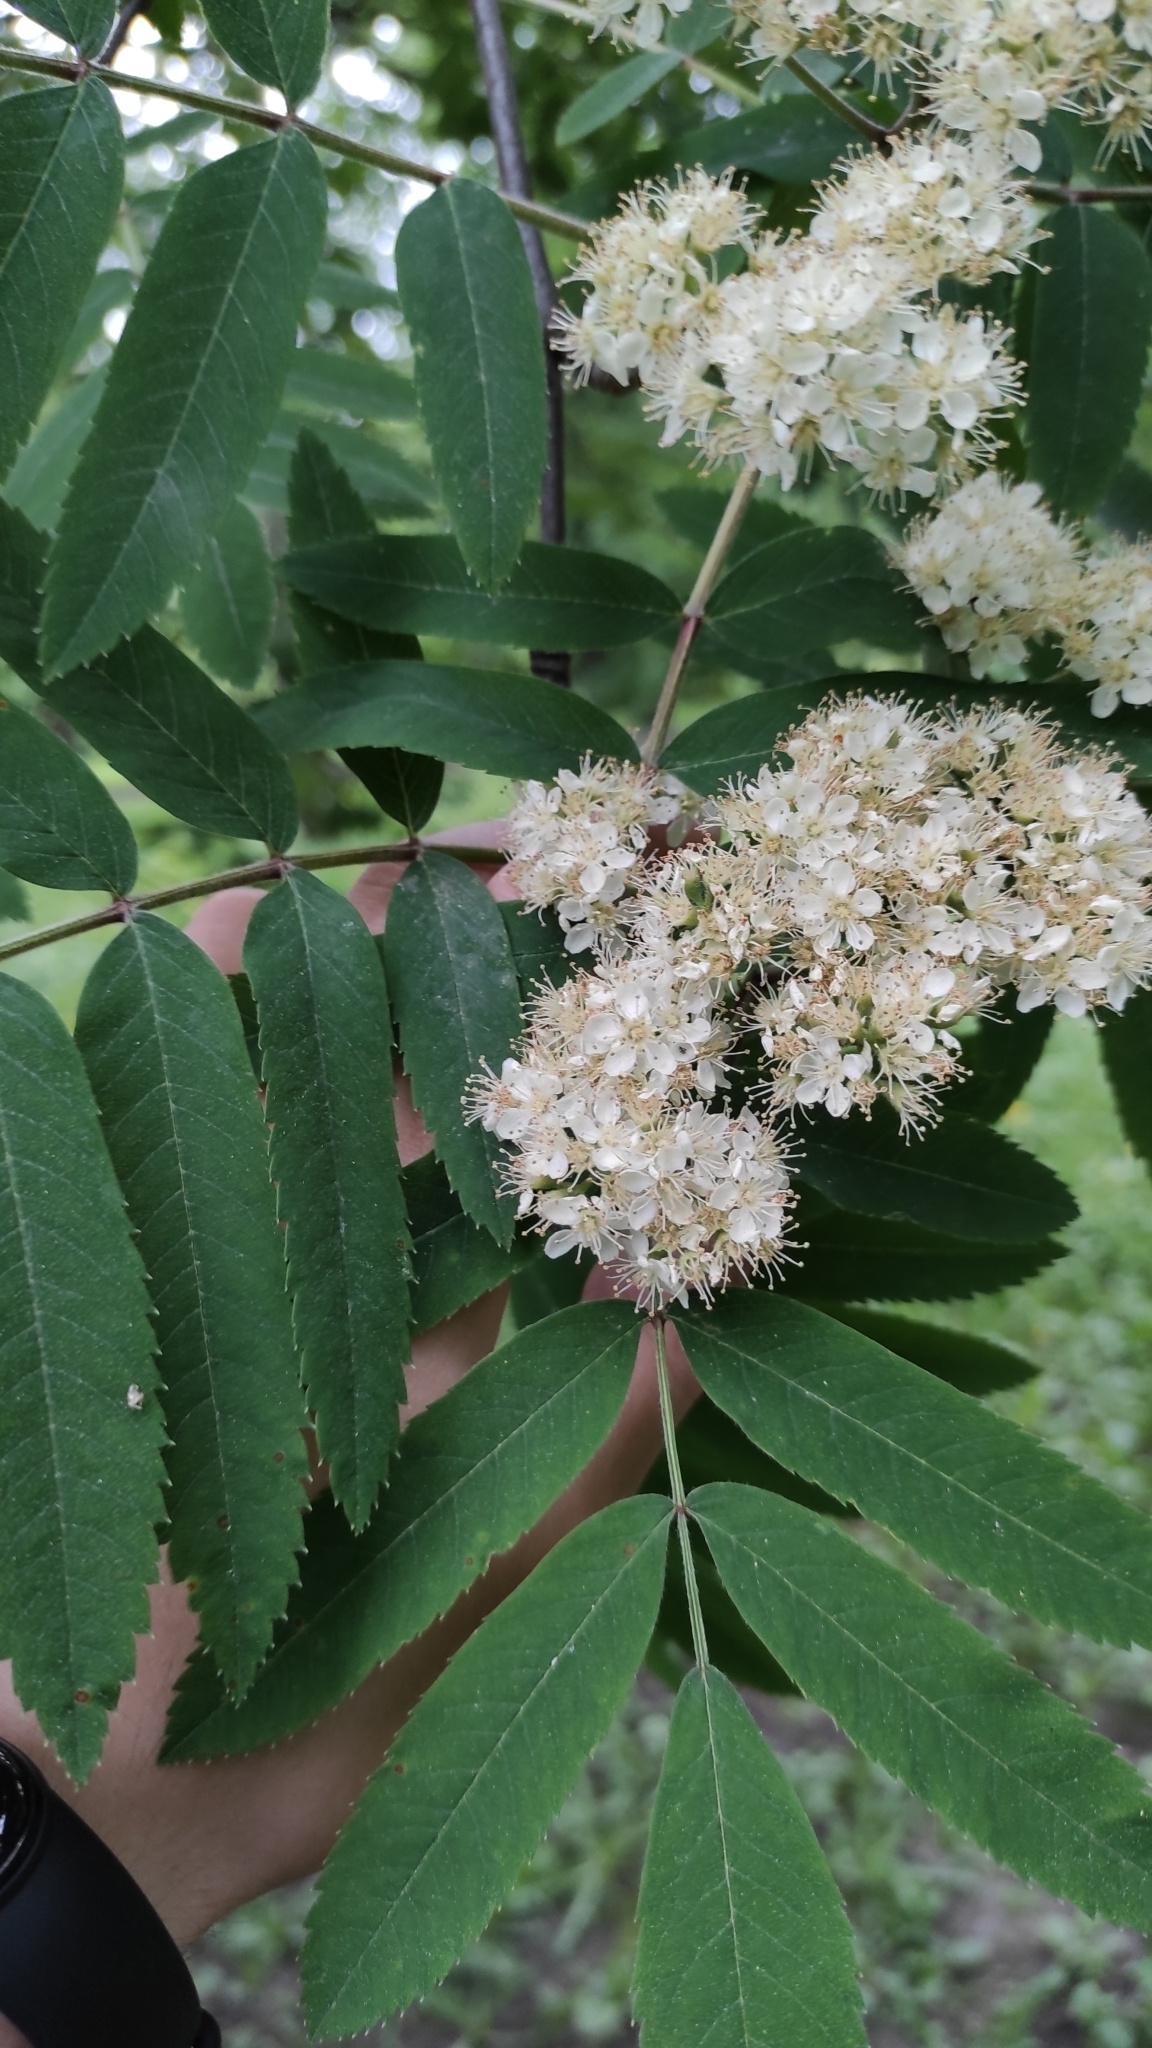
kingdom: Plantae
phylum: Tracheophyta
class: Magnoliopsida
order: Rosales
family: Rosaceae
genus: Sorbus
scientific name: Sorbus aucuparia
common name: Rowan
